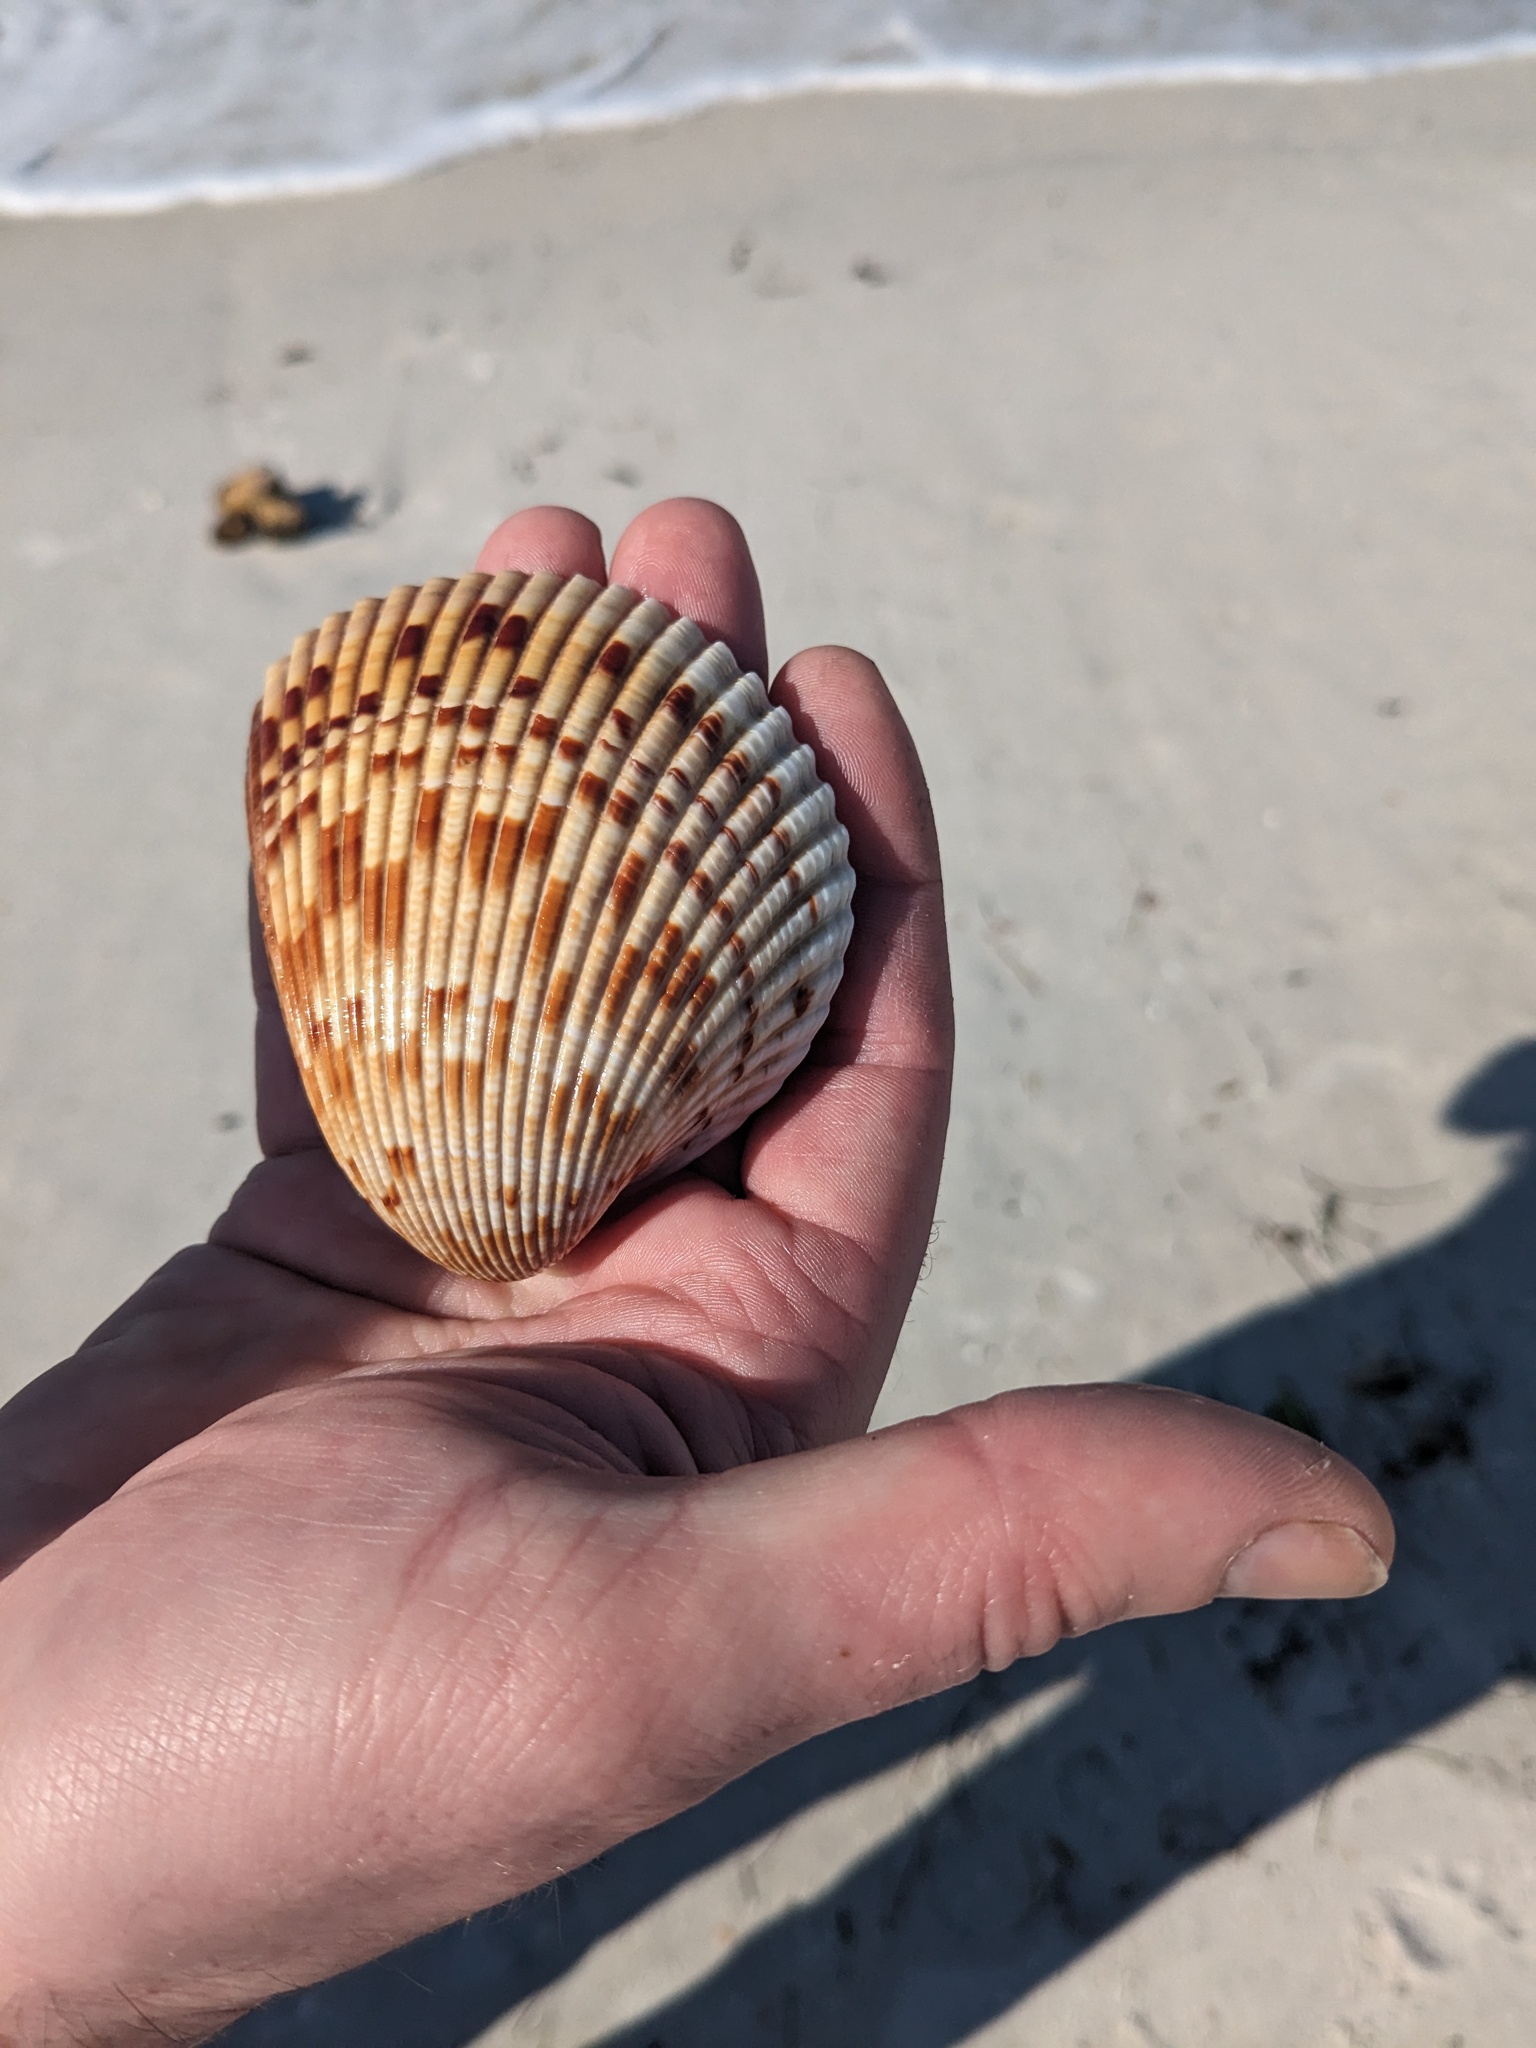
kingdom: Animalia
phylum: Mollusca
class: Bivalvia
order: Cardiida
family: Cardiidae
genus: Dinocardium
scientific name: Dinocardium robustum
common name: Atlantic giant cockle
